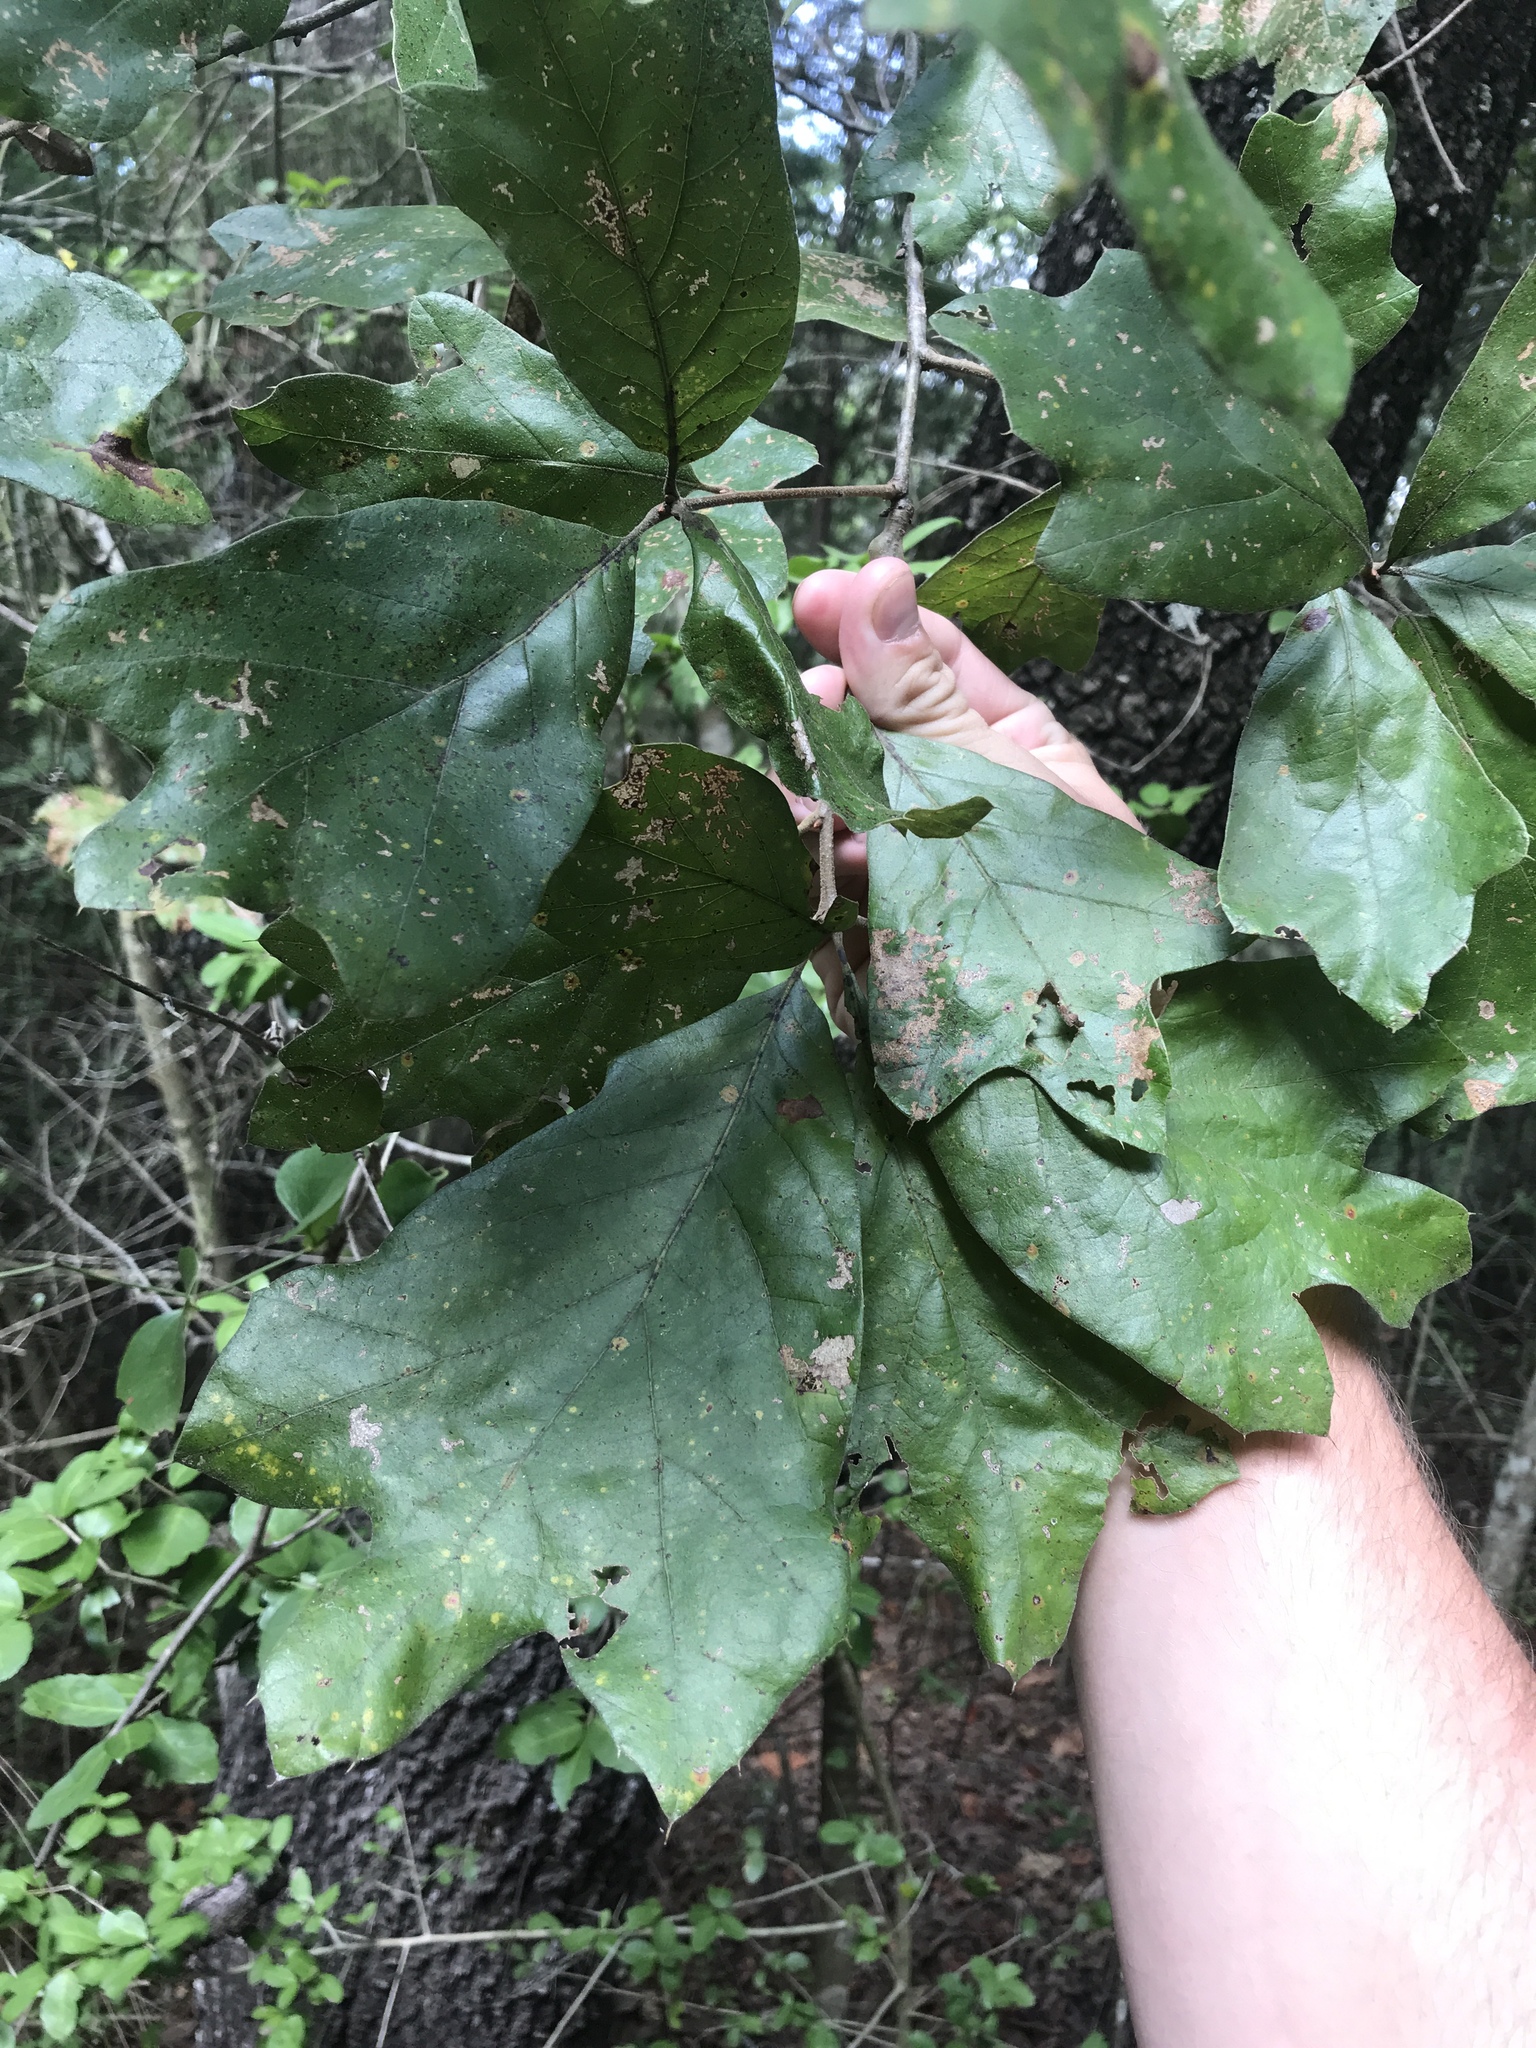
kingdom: Plantae
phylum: Tracheophyta
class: Magnoliopsida
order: Fagales
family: Fagaceae
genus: Quercus
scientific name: Quercus marilandica
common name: Blackjack oak
